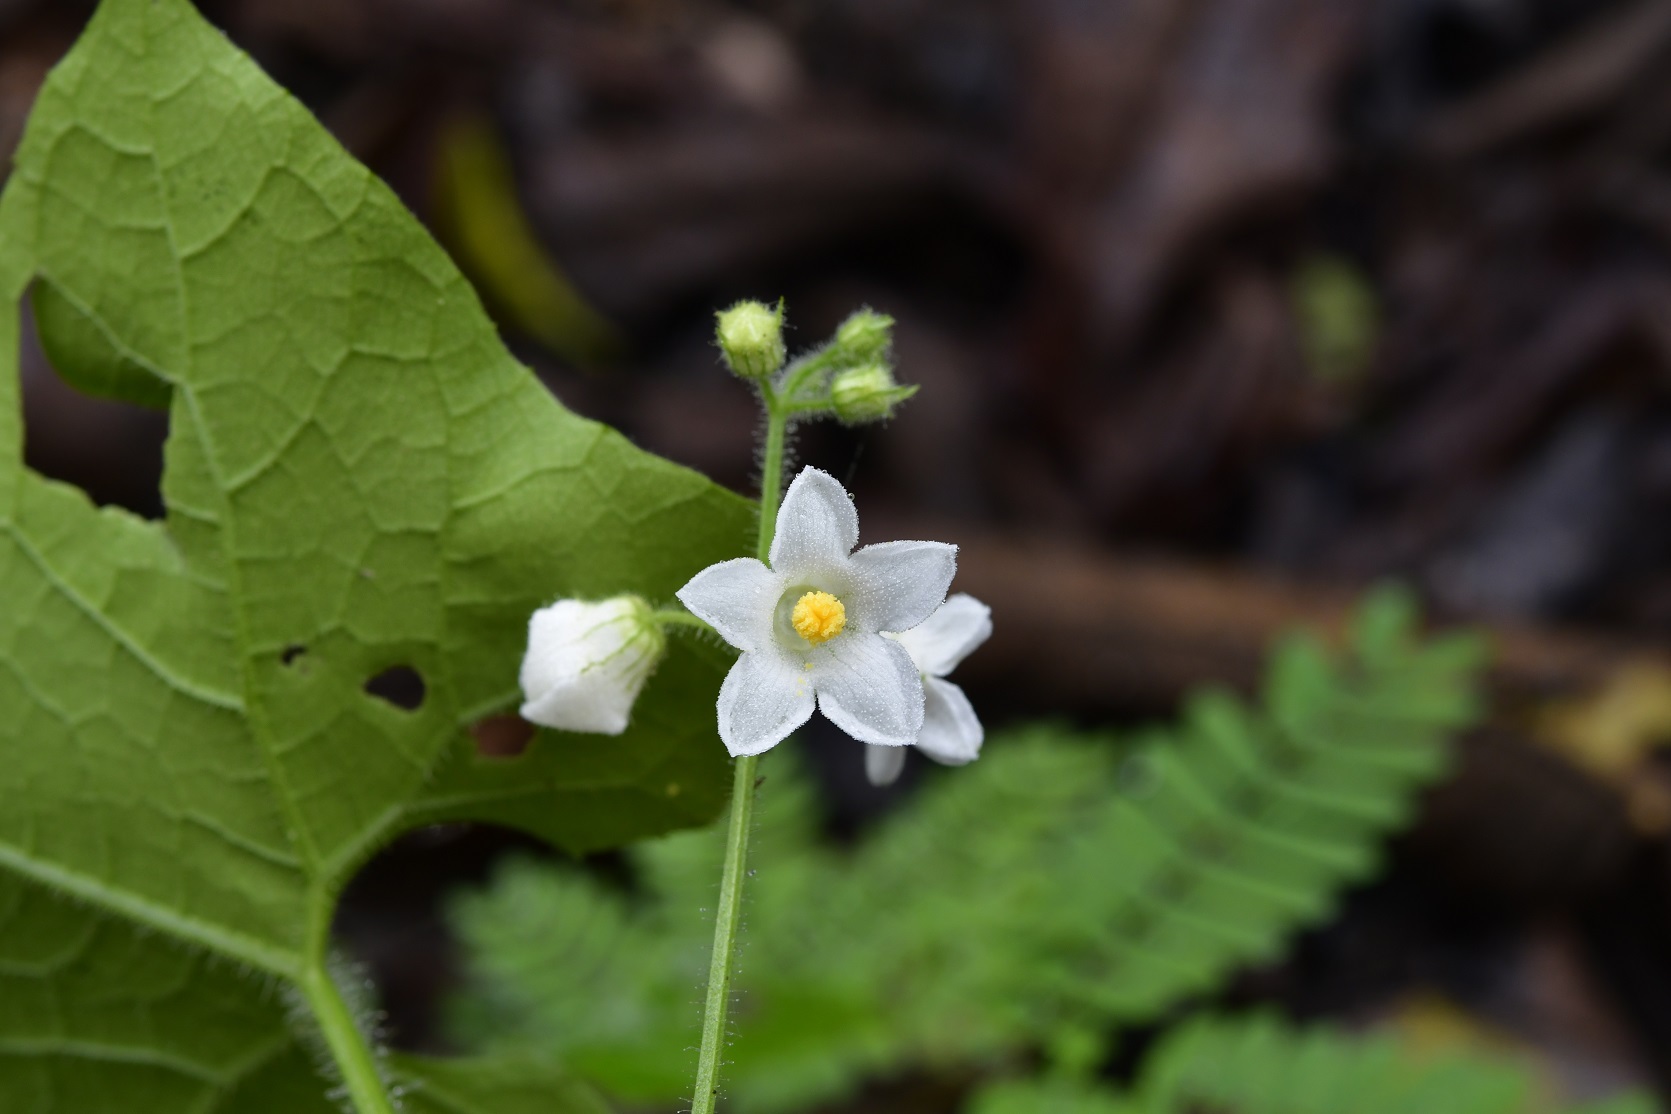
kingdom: Plantae
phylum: Tracheophyta
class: Magnoliopsida
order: Cucurbitales
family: Cucurbitaceae
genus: Echinopepon
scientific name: Echinopepon racemosus
